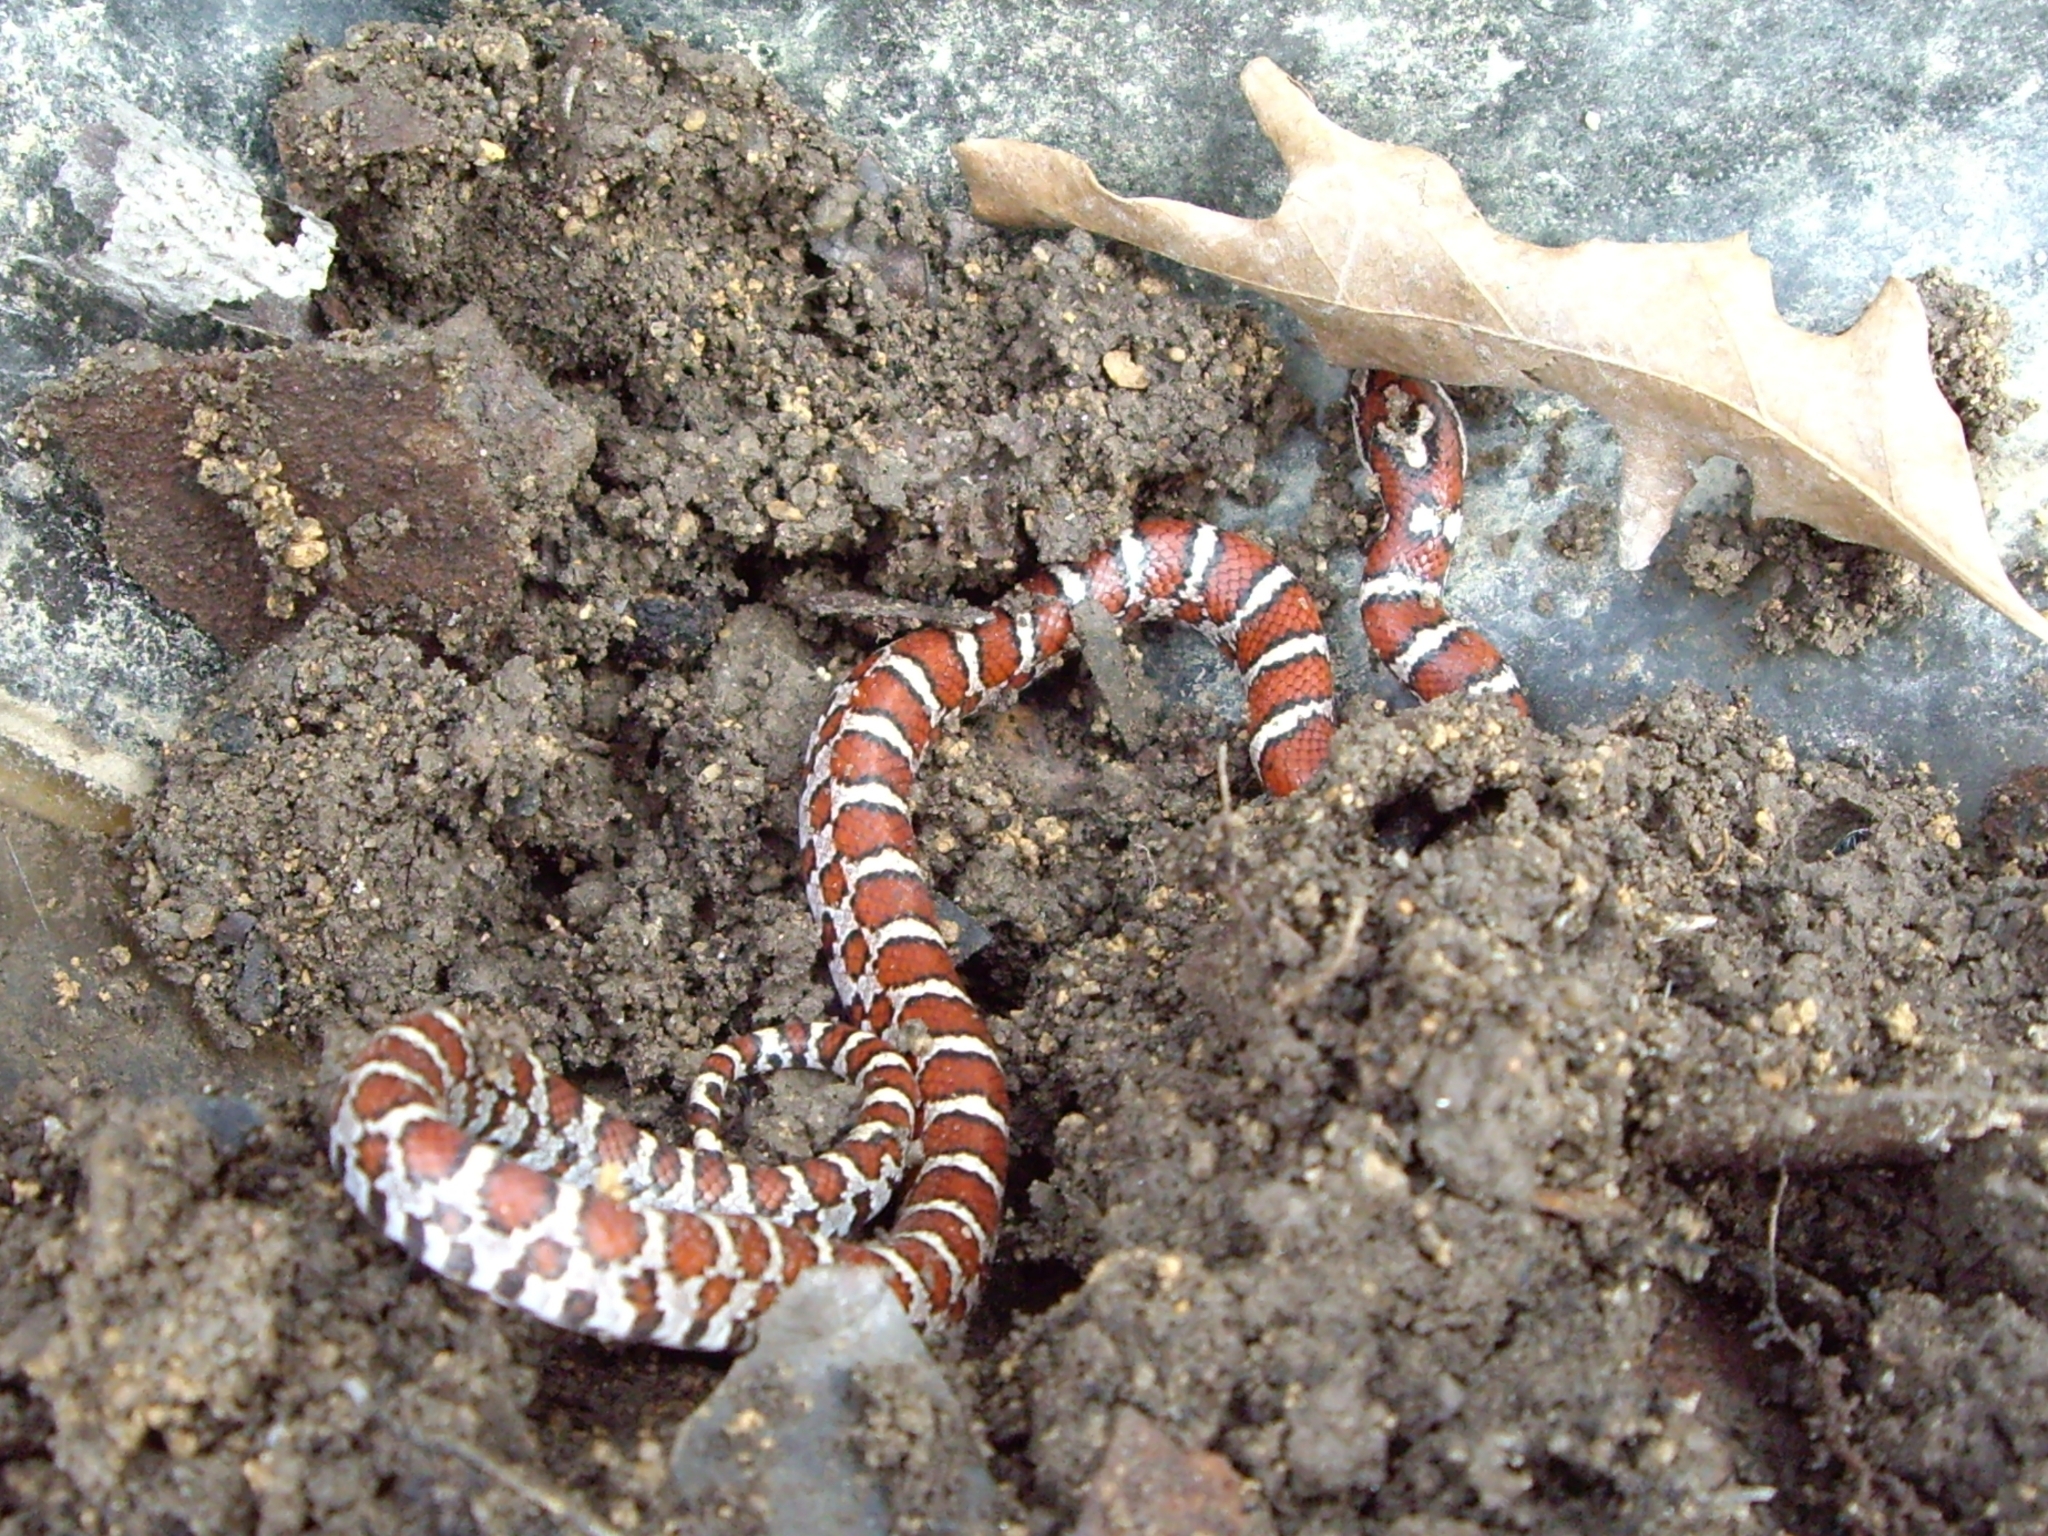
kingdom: Animalia
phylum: Chordata
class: Squamata
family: Colubridae
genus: Lampropeltis
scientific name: Lampropeltis triangulum
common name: Eastern milksnake
